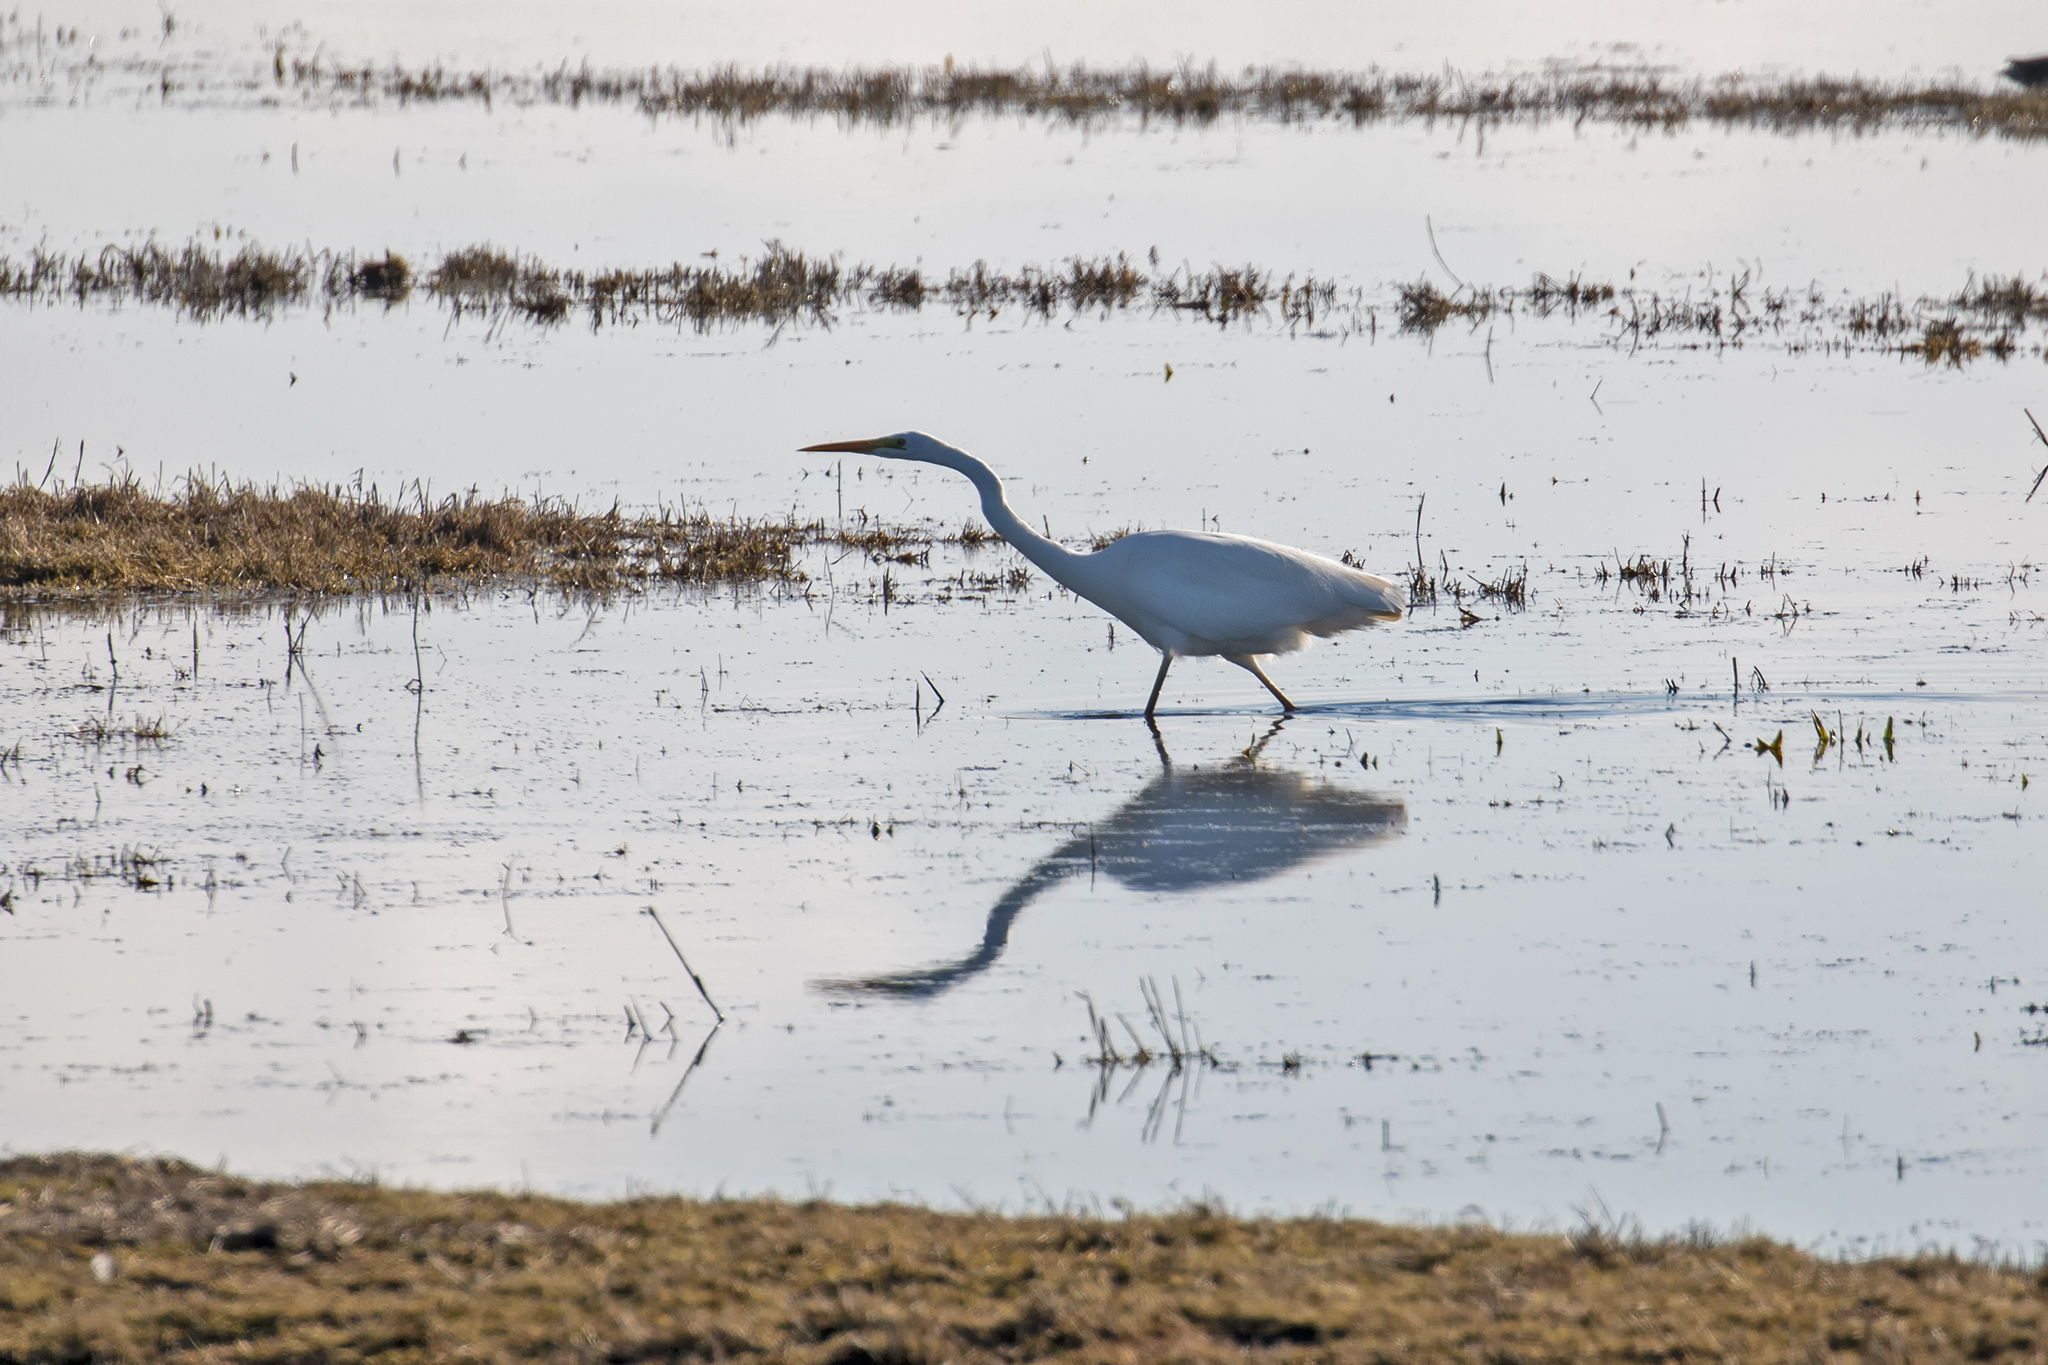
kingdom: Animalia
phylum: Chordata
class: Aves
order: Pelecaniformes
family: Ardeidae
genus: Ardea
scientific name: Ardea alba
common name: Great egret
